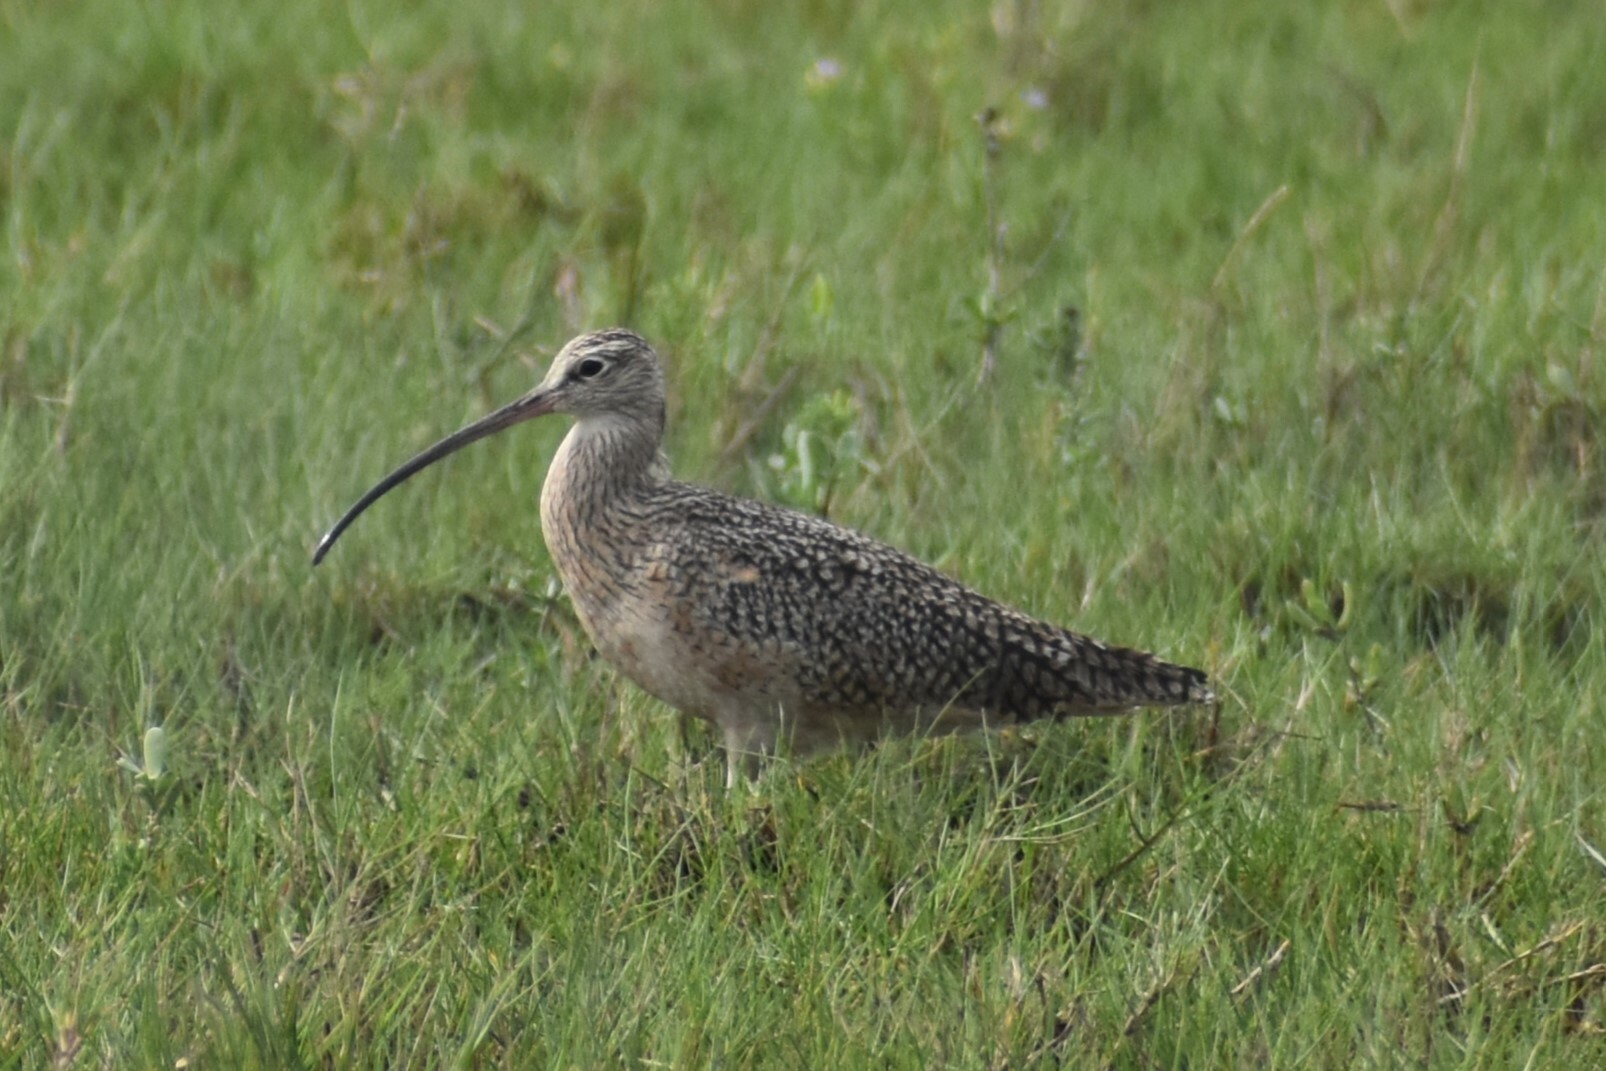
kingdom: Animalia
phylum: Chordata
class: Aves
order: Charadriiformes
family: Scolopacidae
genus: Numenius
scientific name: Numenius americanus
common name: Long-billed curlew
